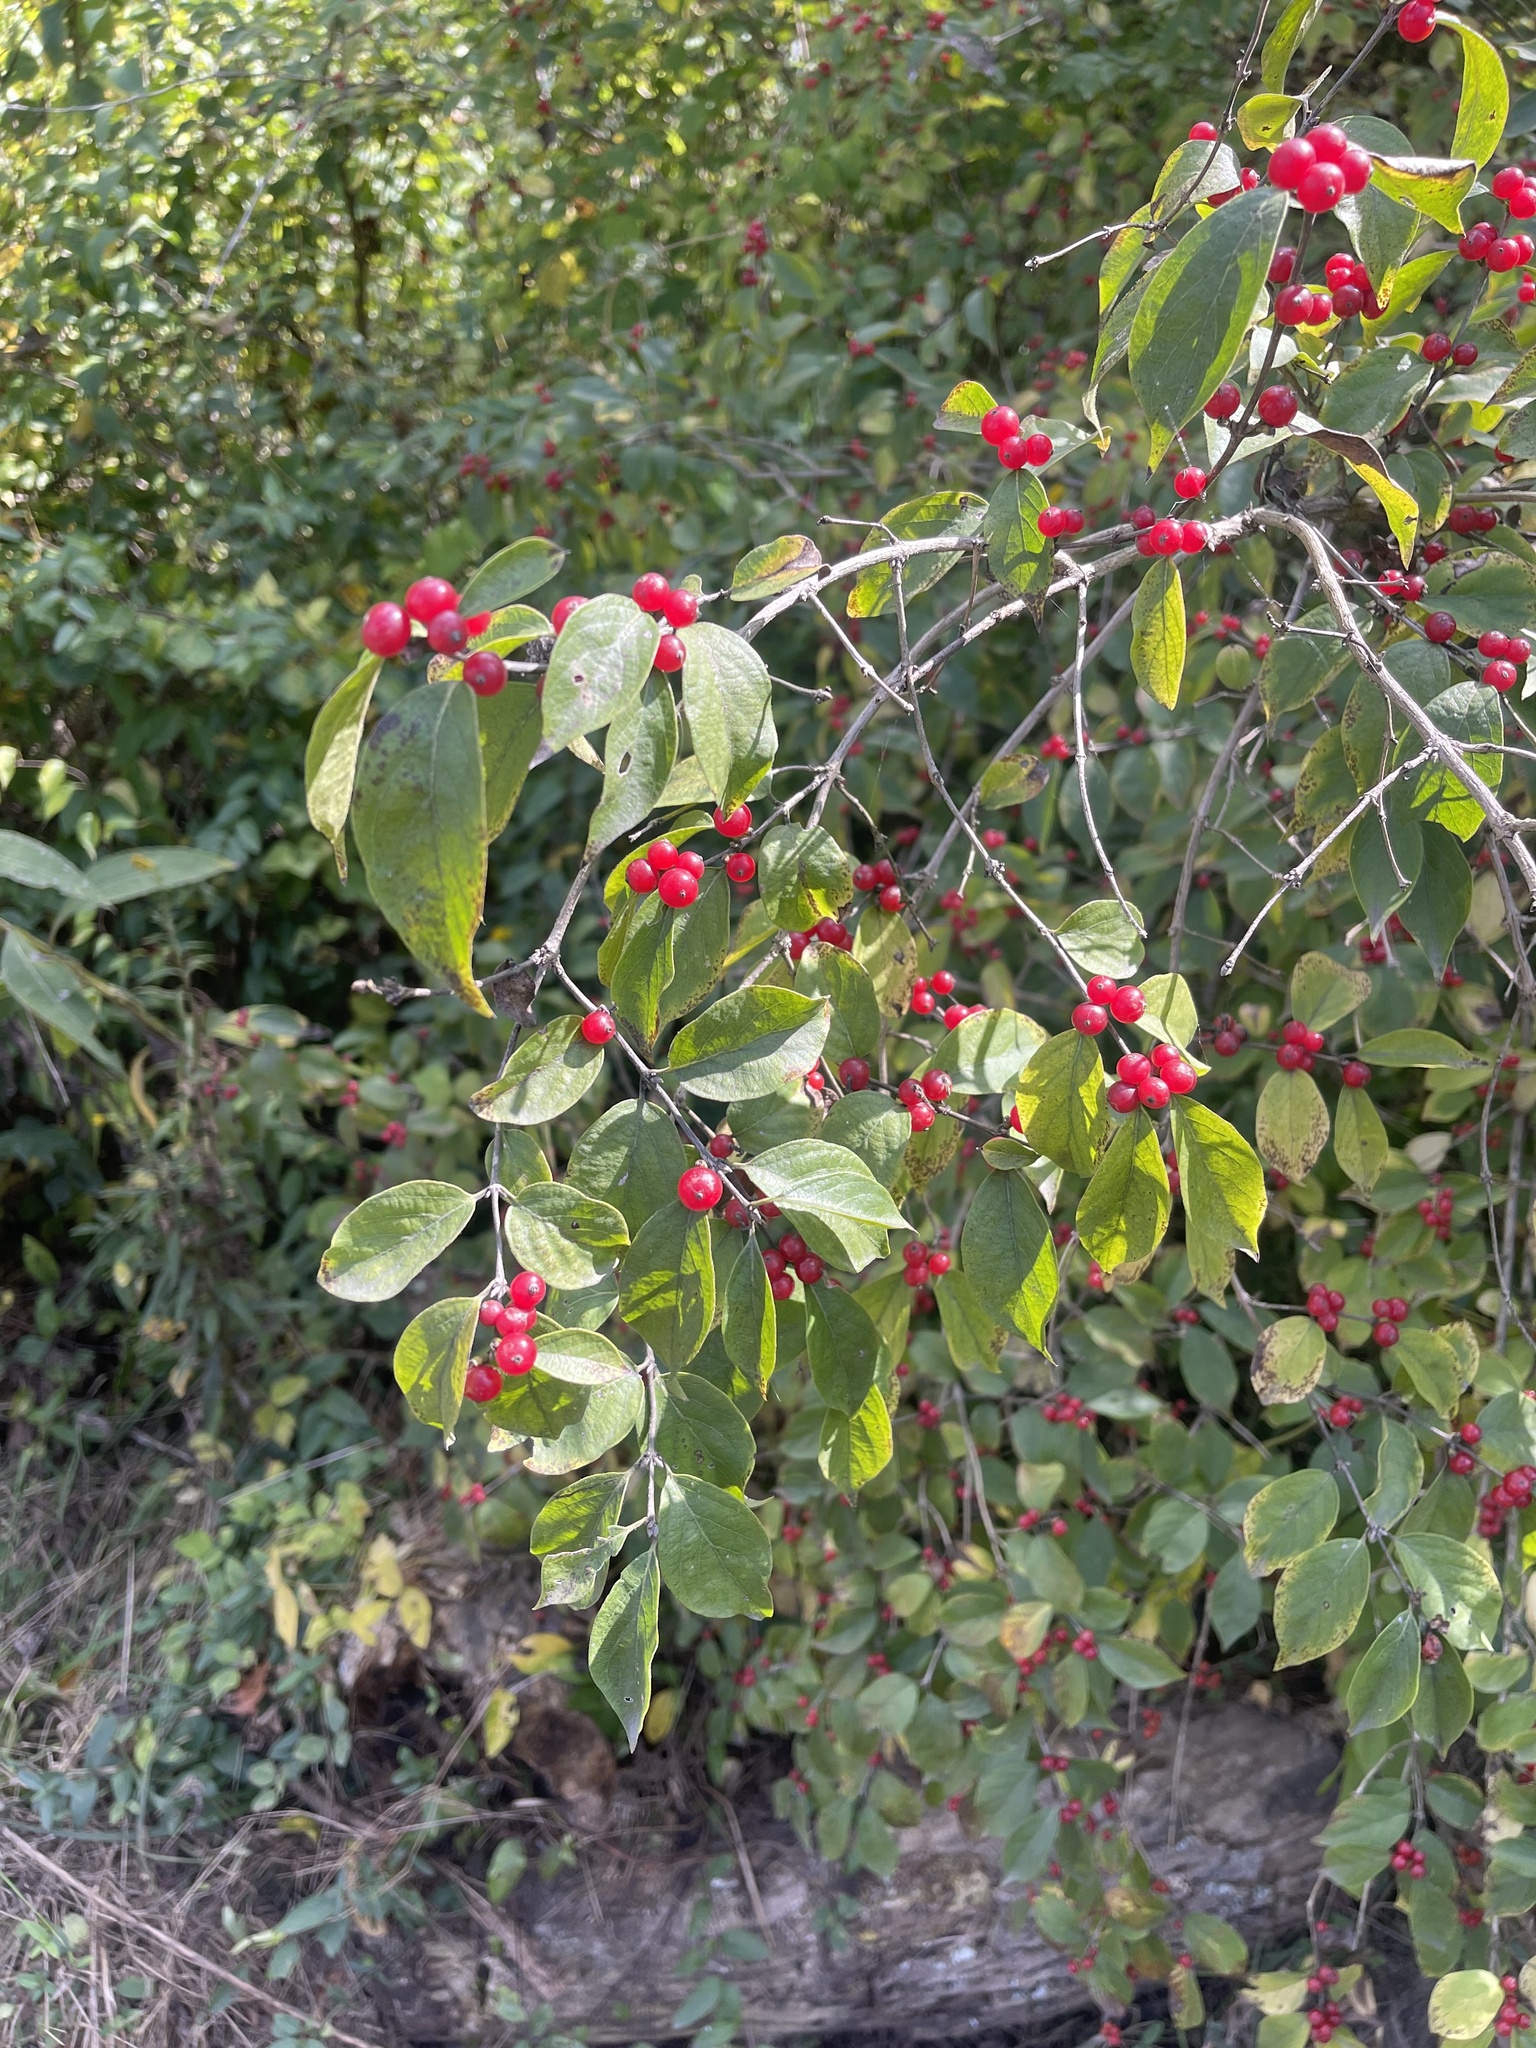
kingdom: Plantae
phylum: Tracheophyta
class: Magnoliopsida
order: Dipsacales
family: Caprifoliaceae
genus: Lonicera
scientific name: Lonicera maackii
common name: Amur honeysuckle
